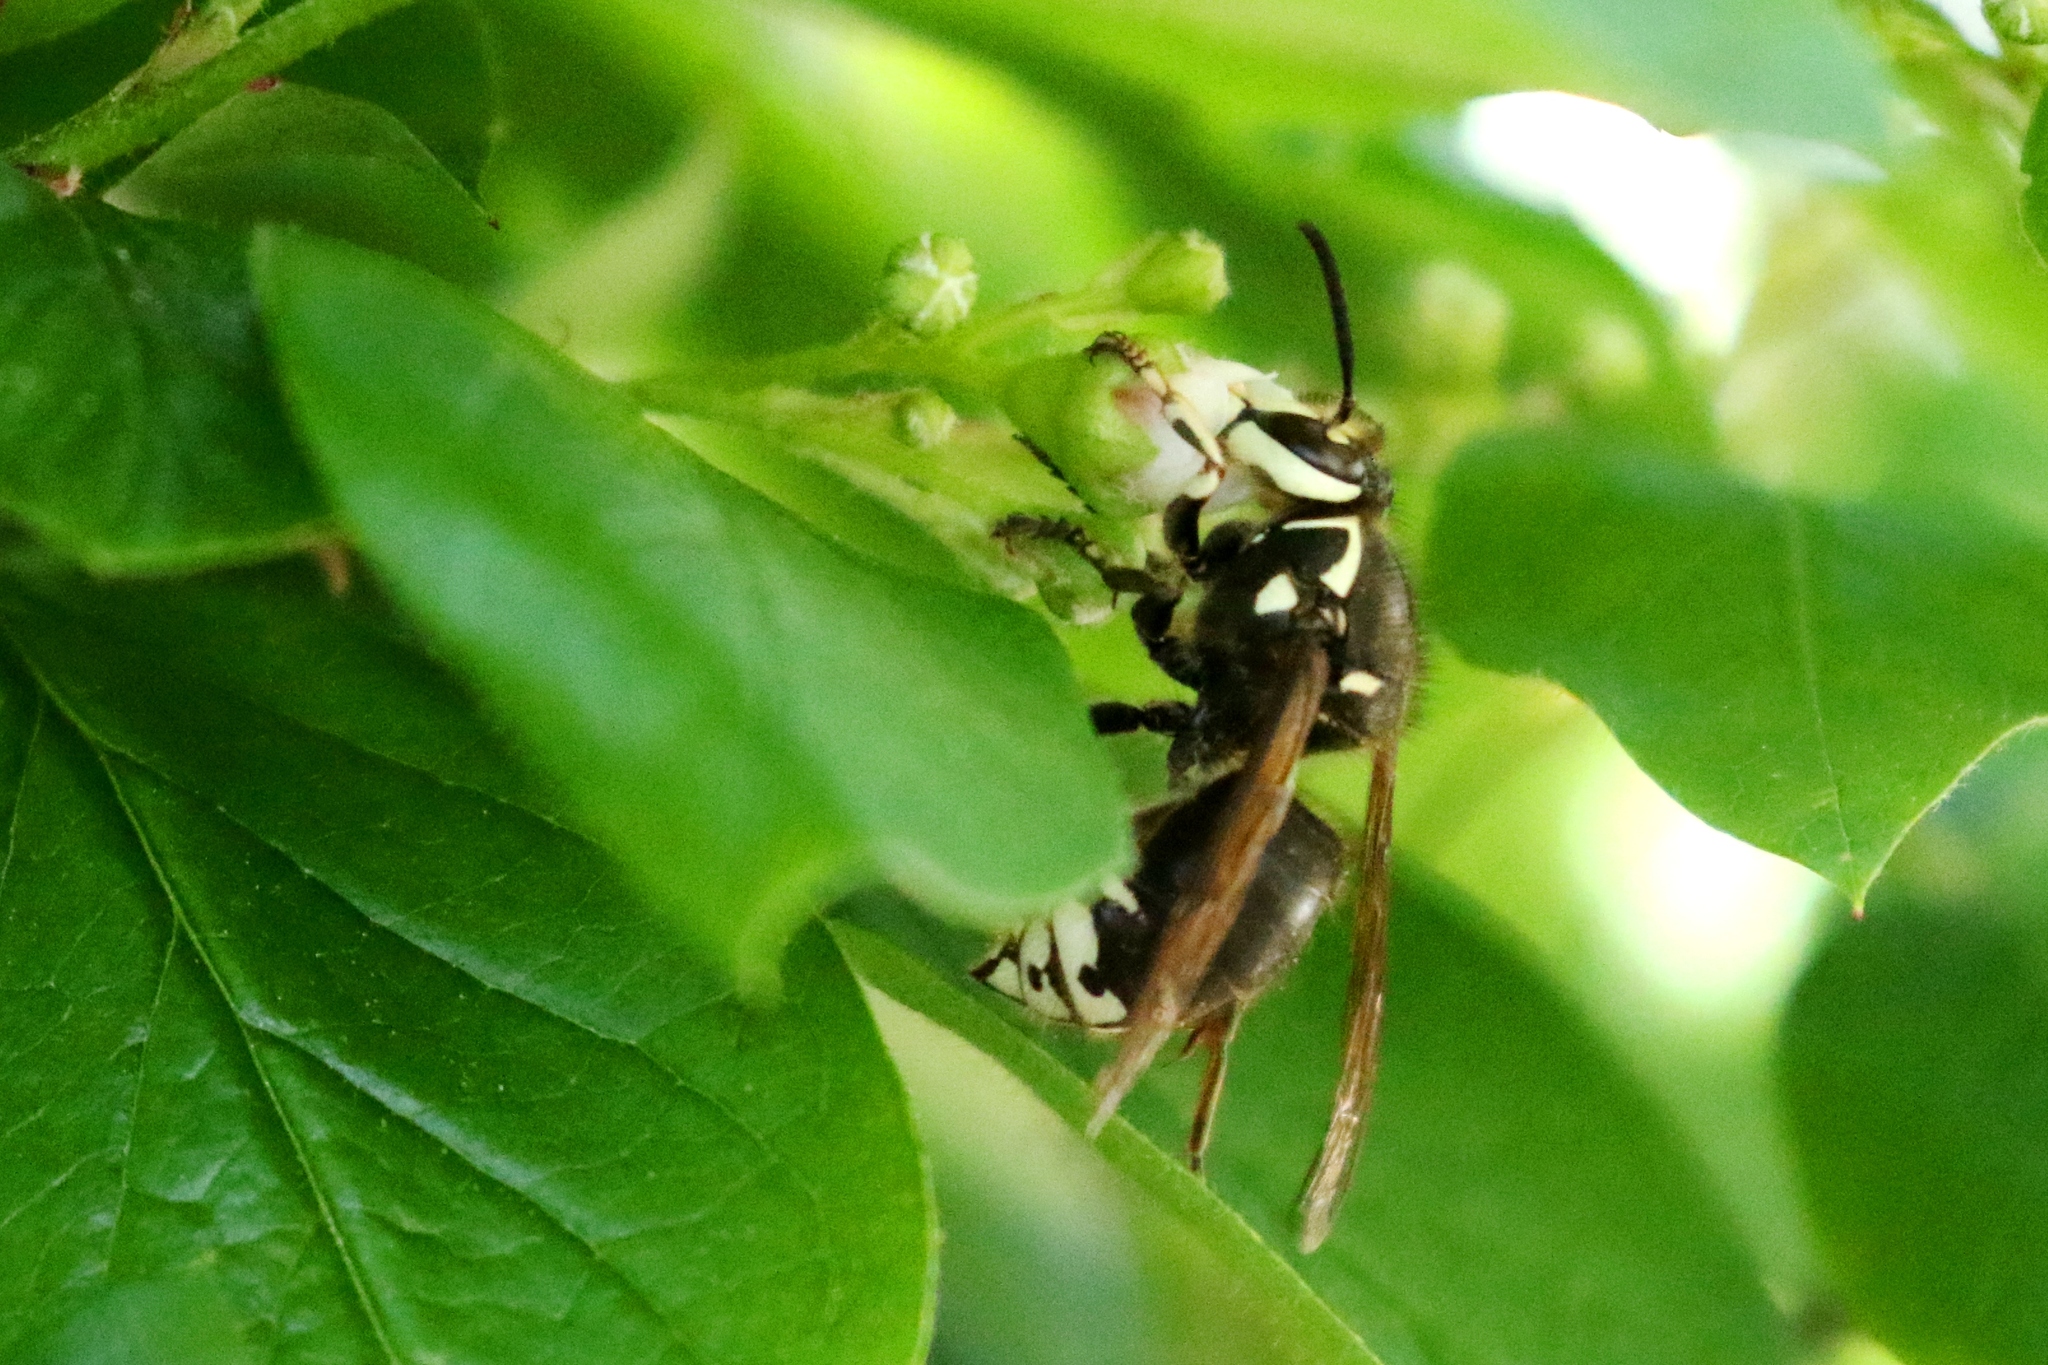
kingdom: Animalia
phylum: Arthropoda
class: Insecta
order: Hymenoptera
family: Vespidae
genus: Dolichovespula
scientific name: Dolichovespula maculata
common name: Bald-faced hornet
